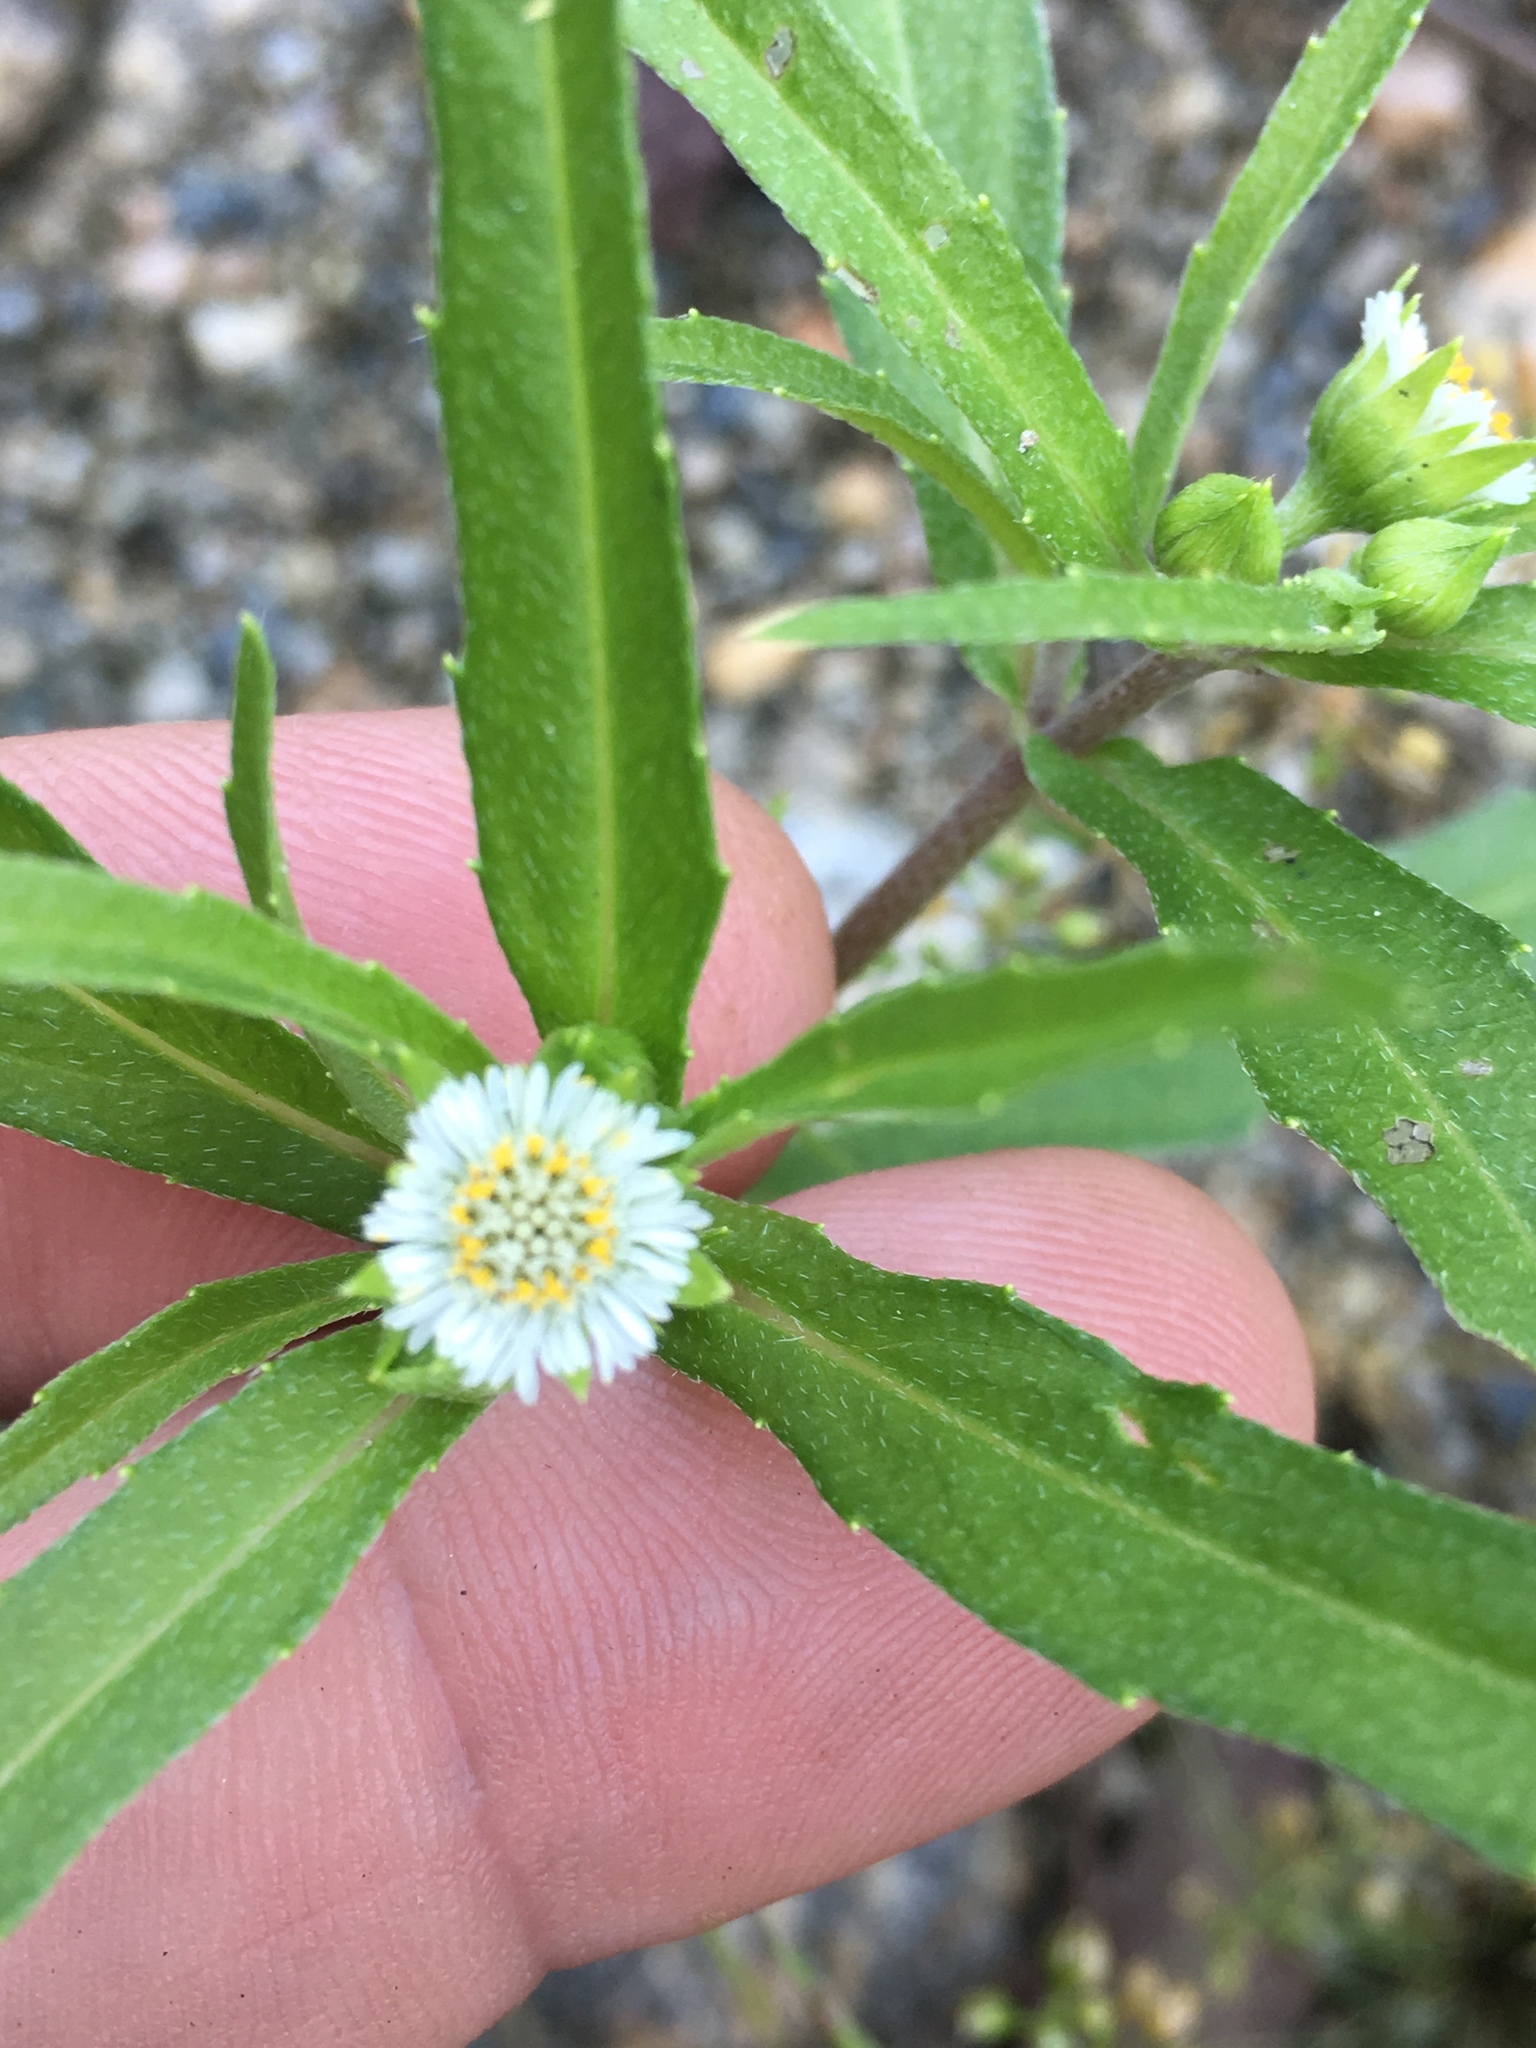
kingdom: Plantae
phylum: Tracheophyta
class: Magnoliopsida
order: Asterales
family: Asteraceae
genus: Eclipta
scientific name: Eclipta prostrata
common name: False daisy
